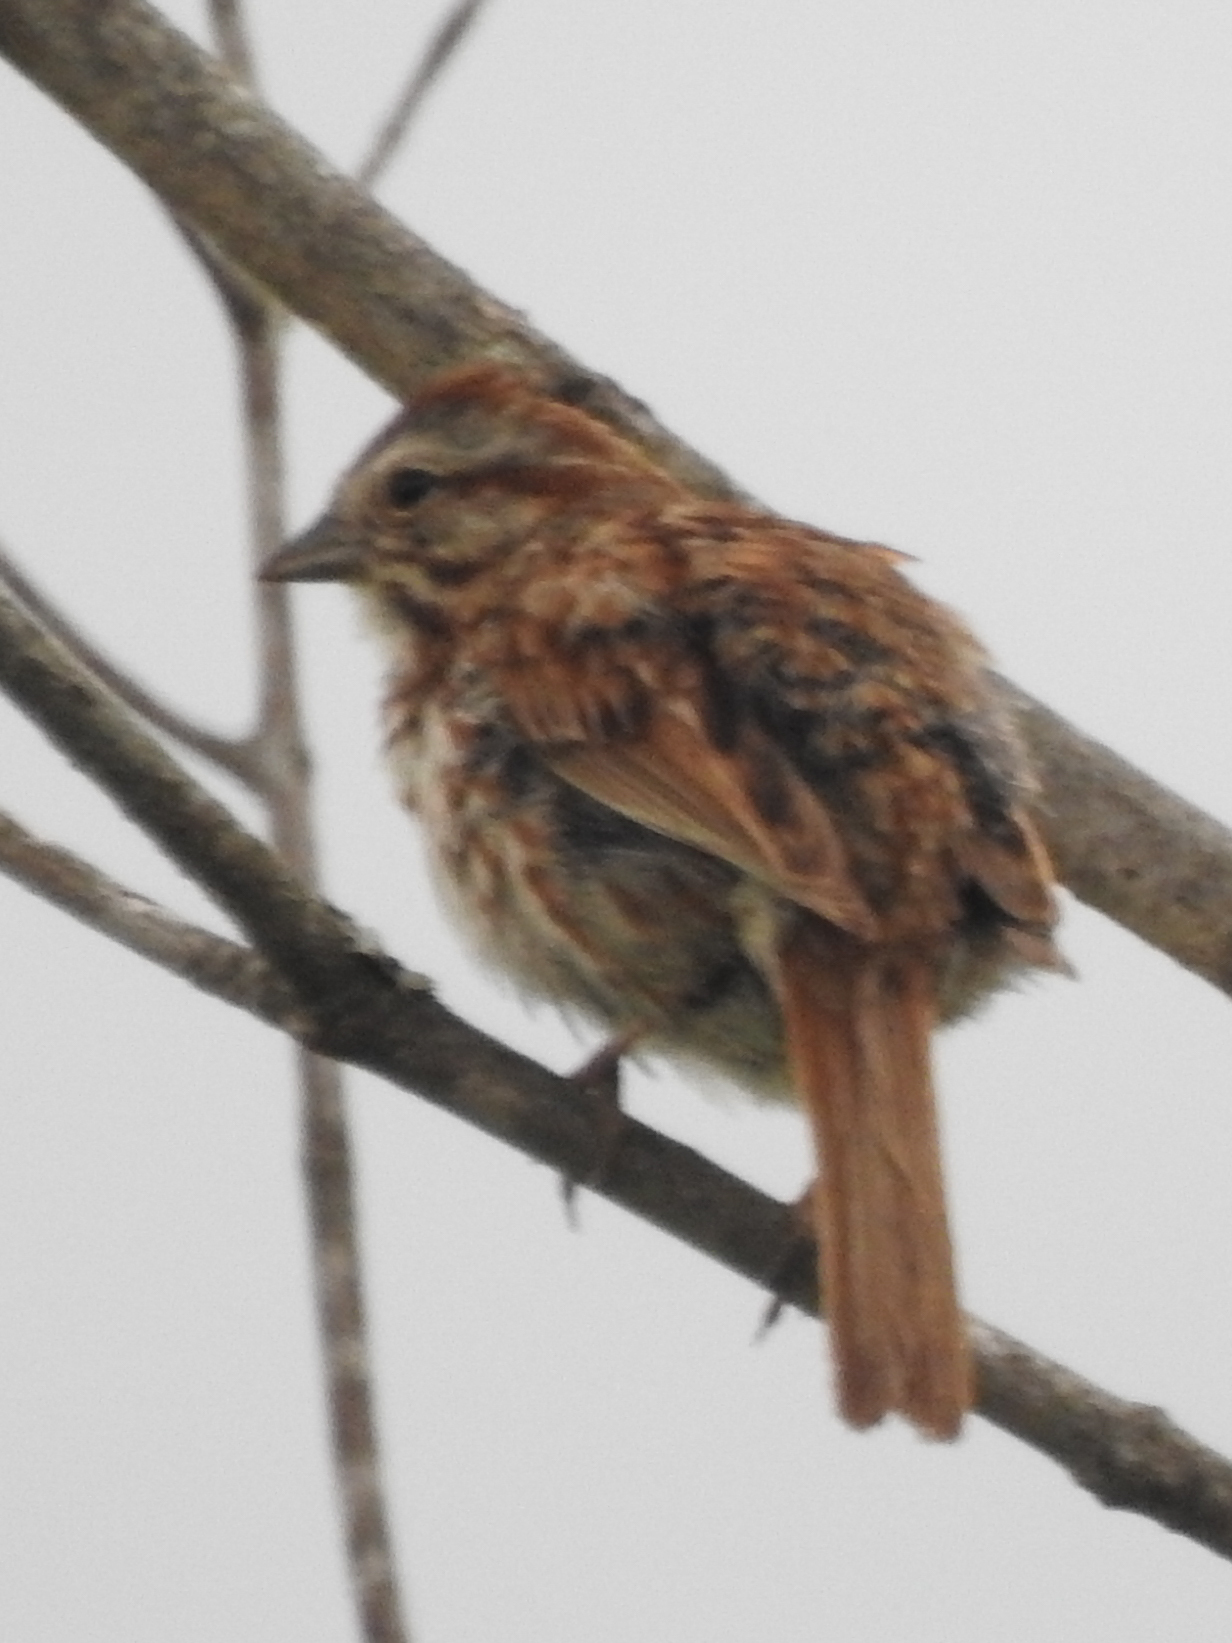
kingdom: Animalia
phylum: Chordata
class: Aves
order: Passeriformes
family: Passerellidae
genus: Melospiza
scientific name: Melospiza melodia
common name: Song sparrow
